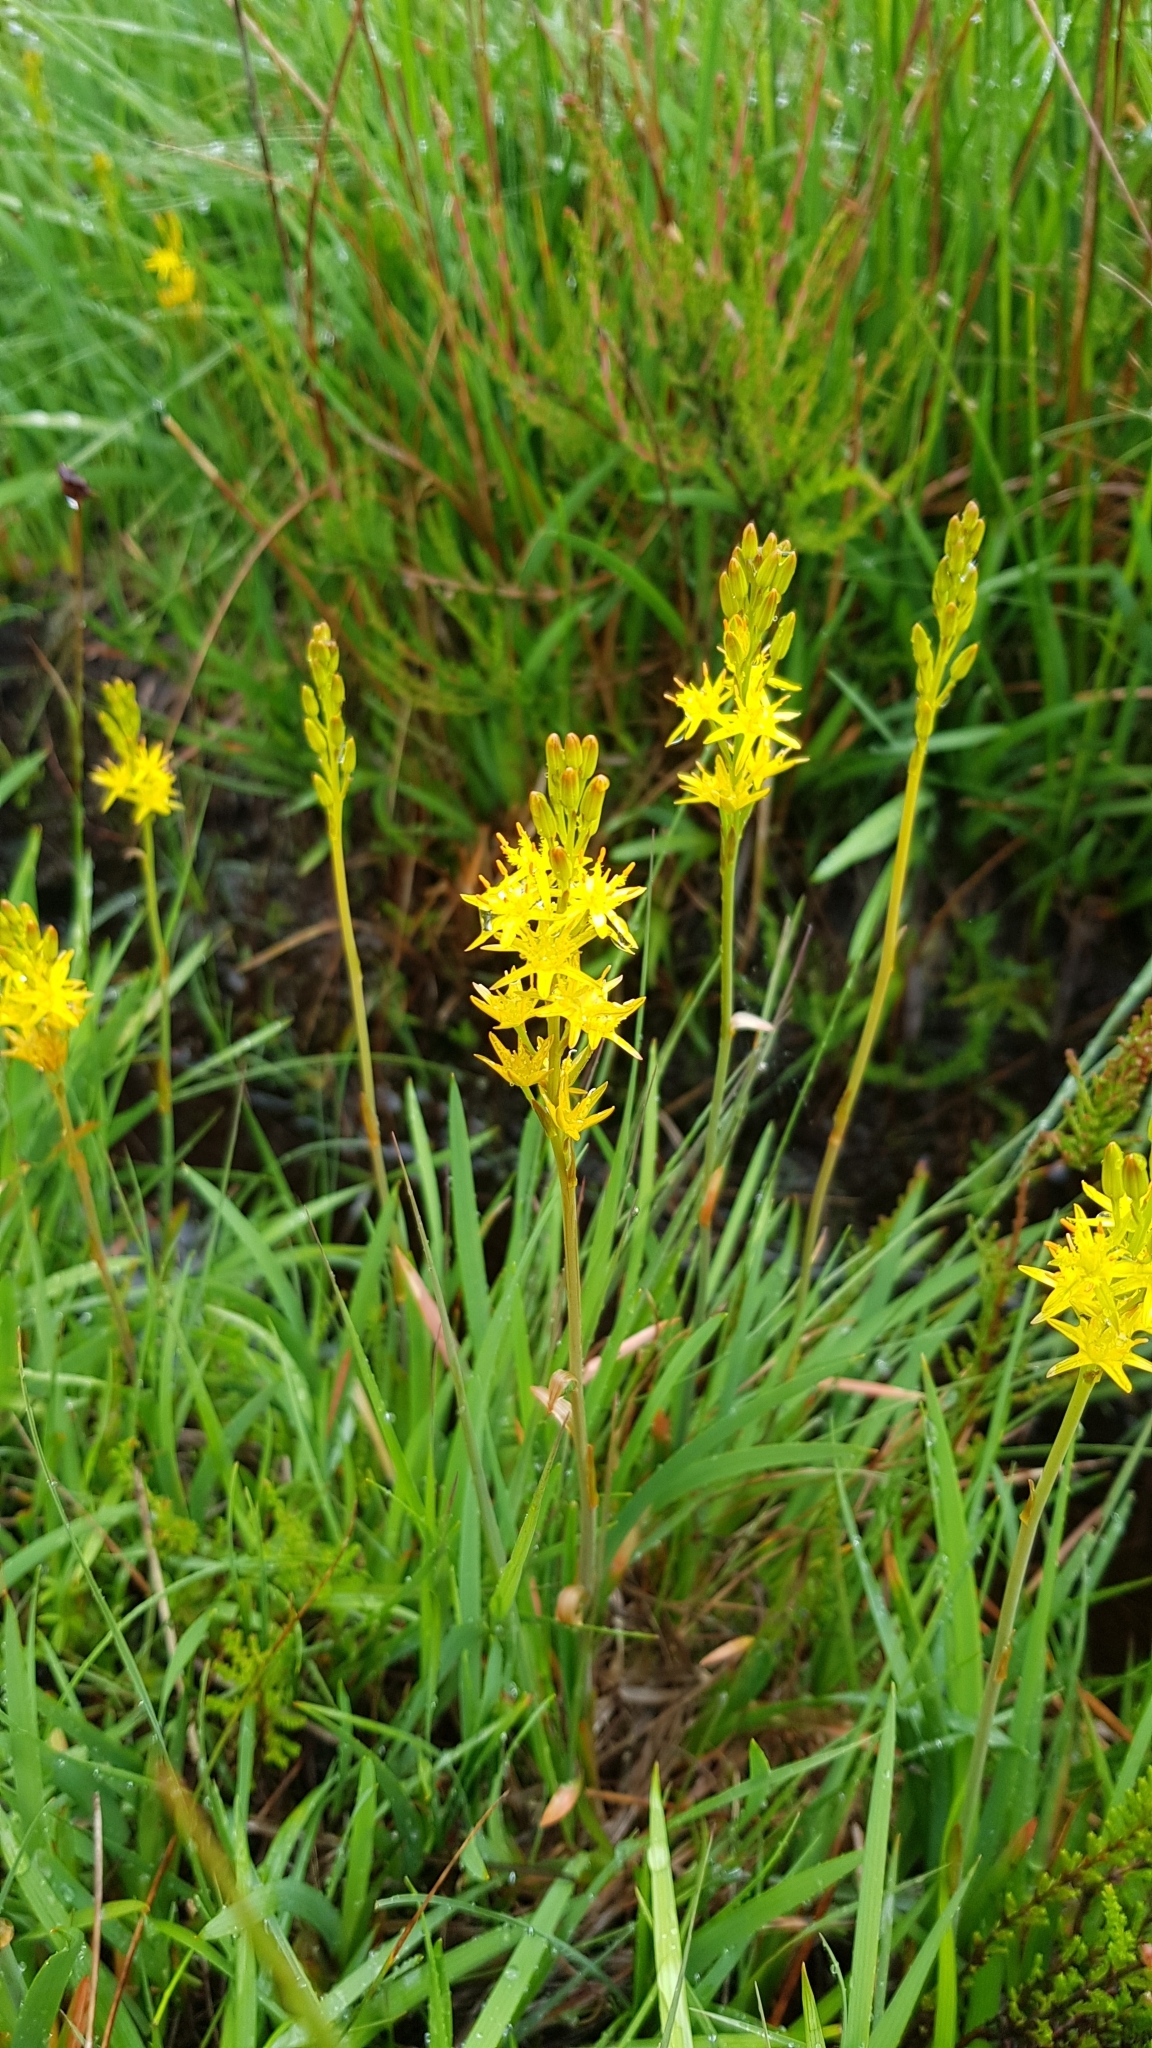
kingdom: Plantae
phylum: Tracheophyta
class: Liliopsida
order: Dioscoreales
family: Nartheciaceae
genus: Narthecium
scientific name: Narthecium ossifragum
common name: Bog asphodel
